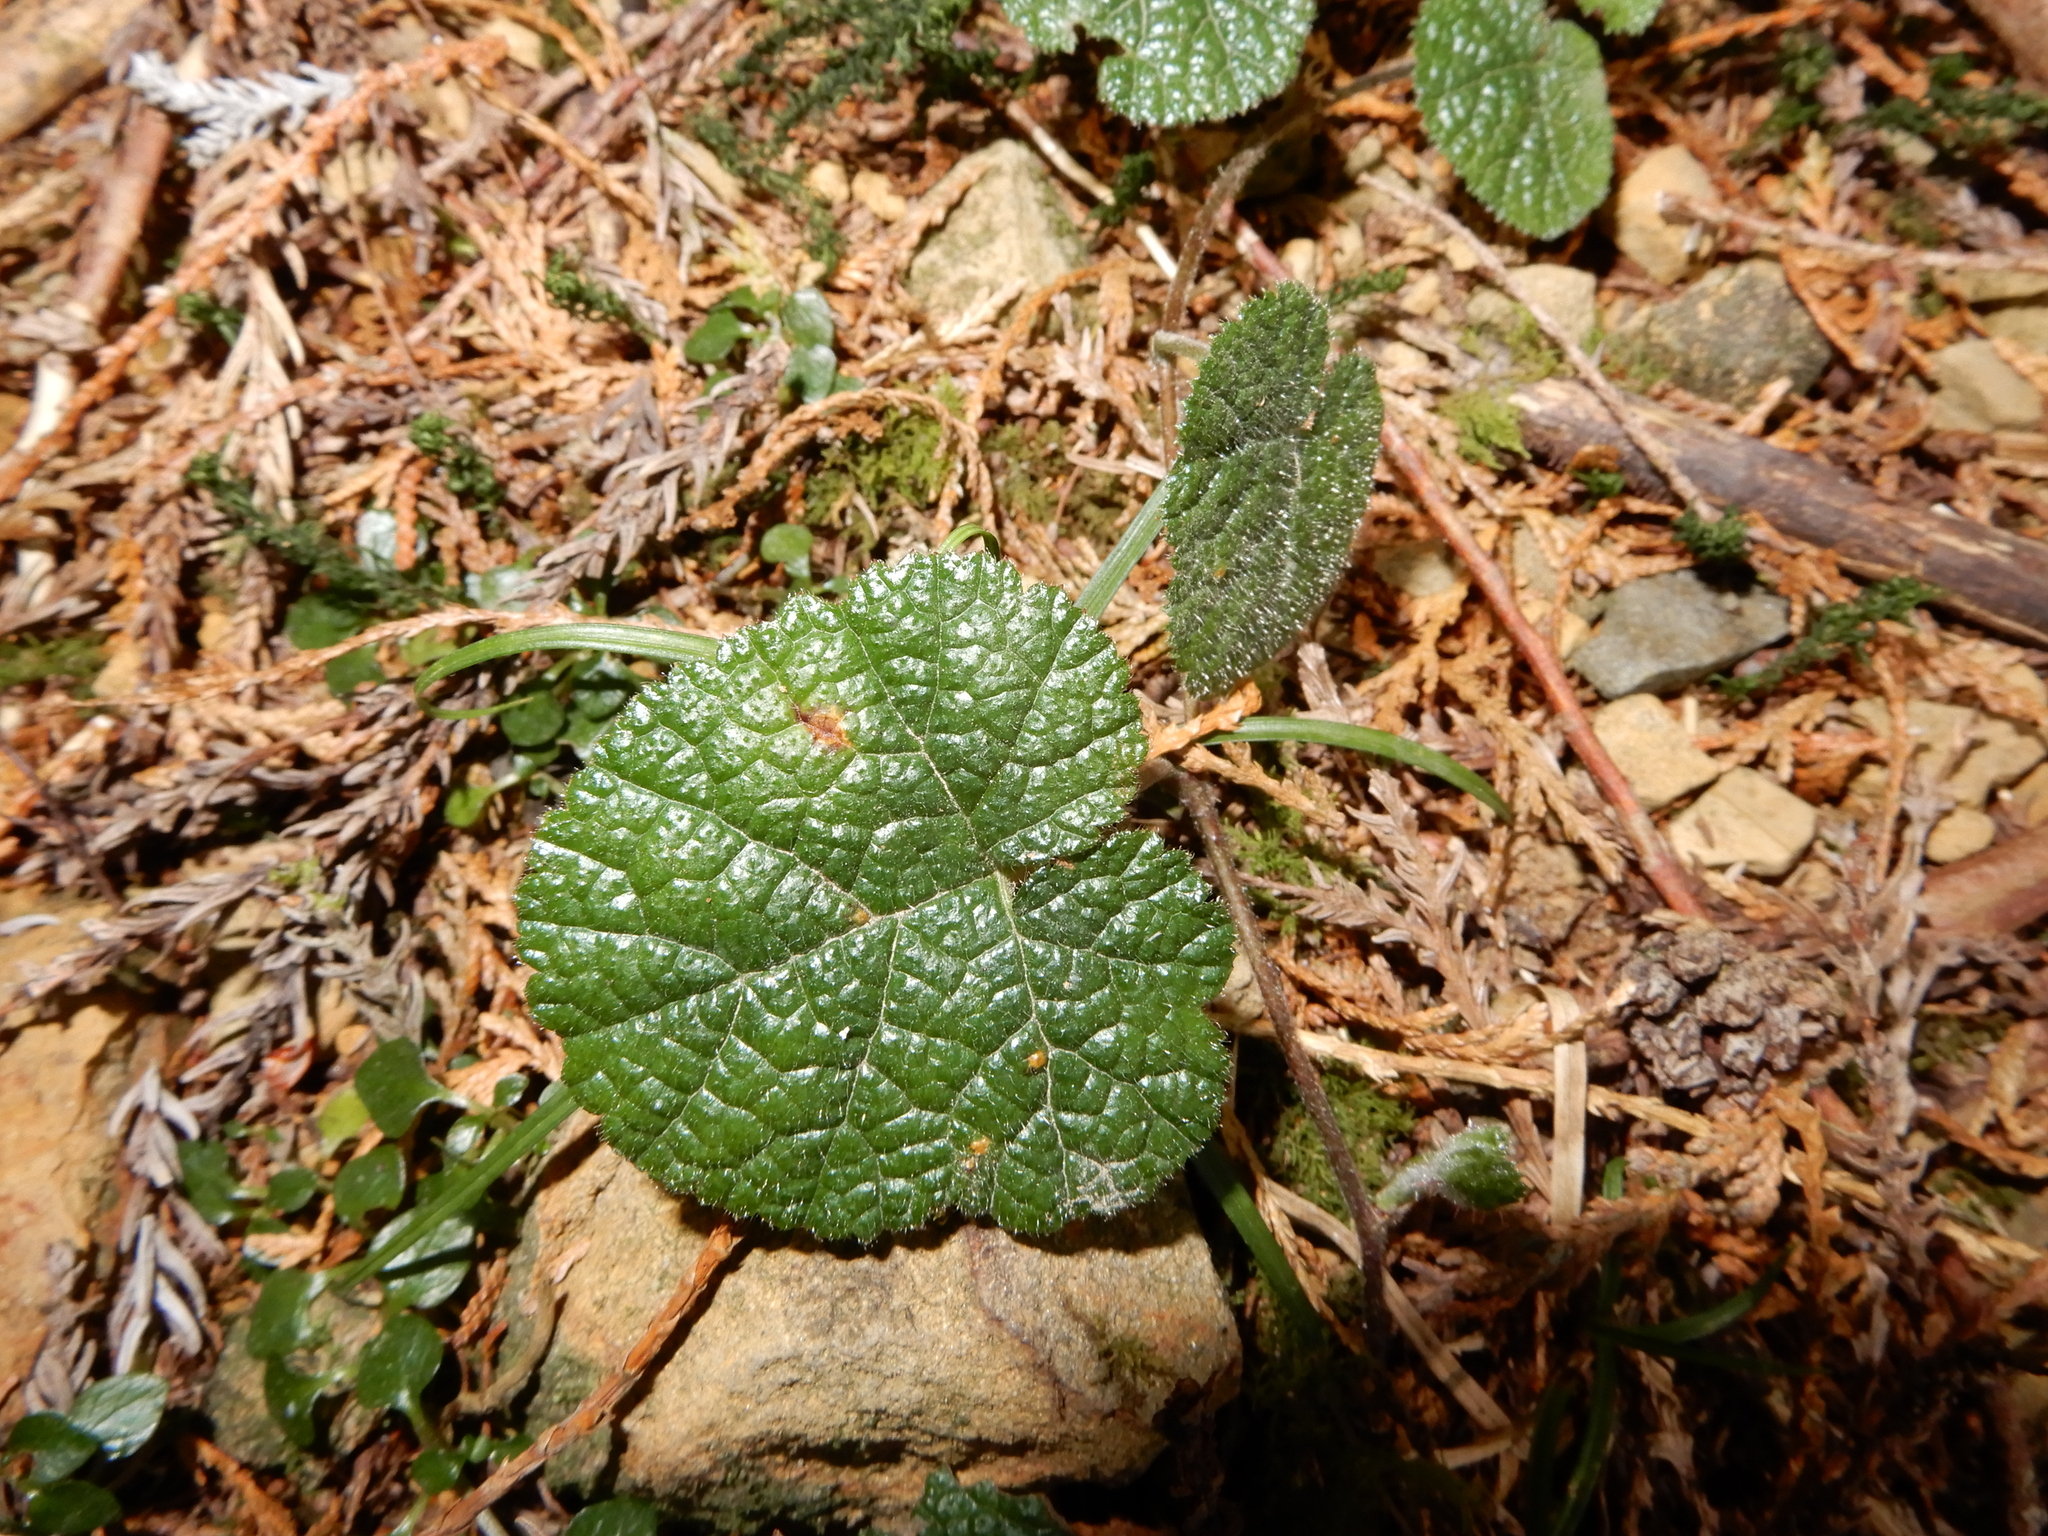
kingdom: Plantae
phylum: Tracheophyta
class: Magnoliopsida
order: Rosales
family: Rosaceae
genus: Rubus
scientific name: Rubus pectinellus
